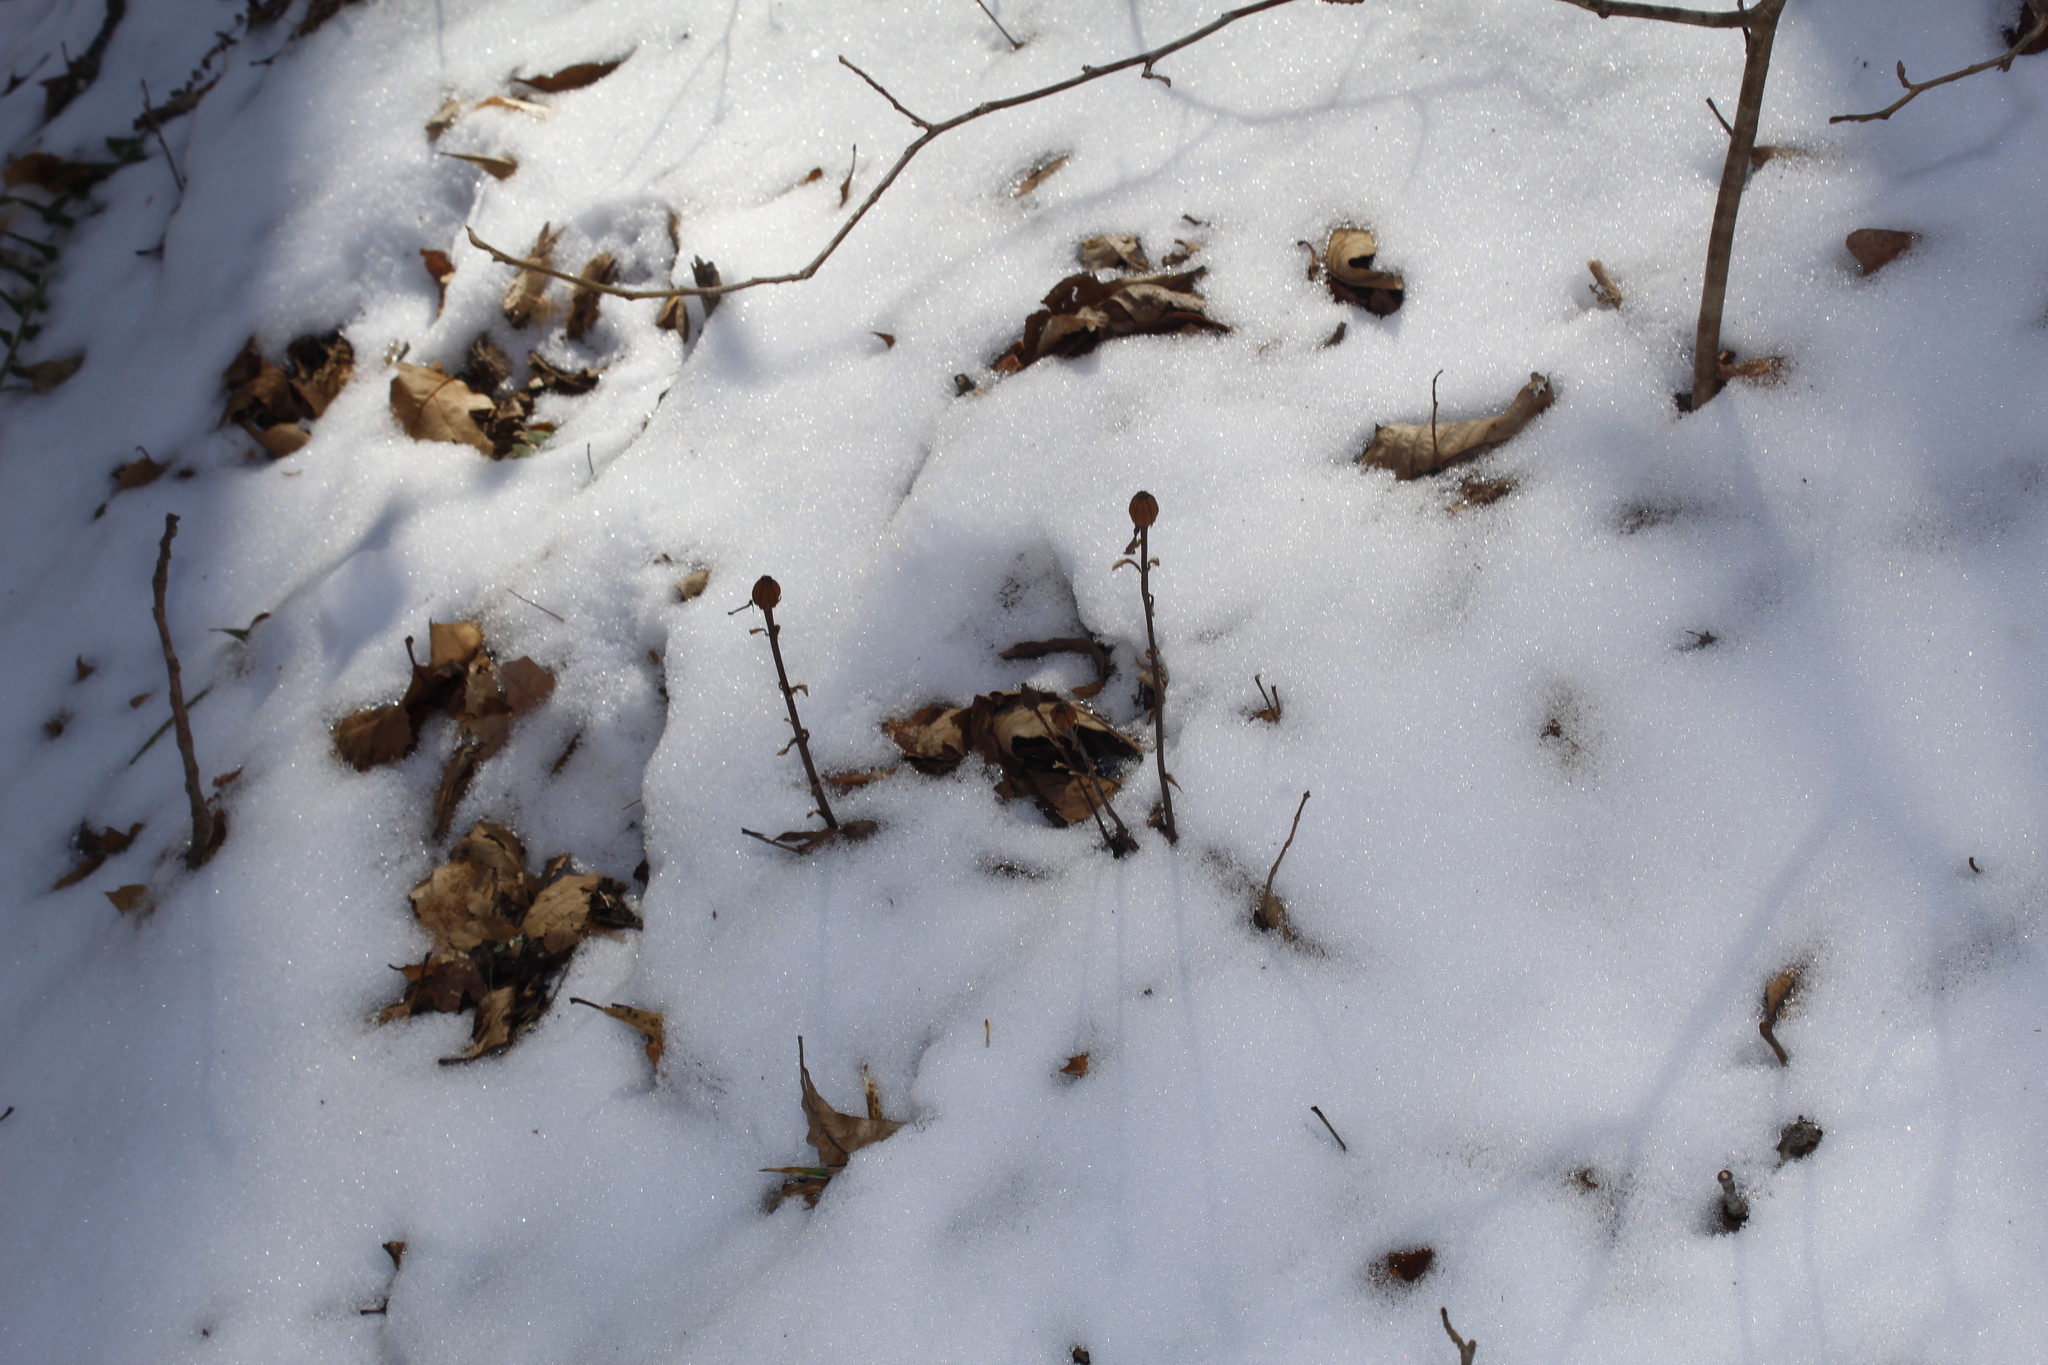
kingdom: Plantae
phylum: Tracheophyta
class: Magnoliopsida
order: Ericales
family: Ericaceae
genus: Monotropa
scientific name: Monotropa uniflora
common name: Convulsion root
